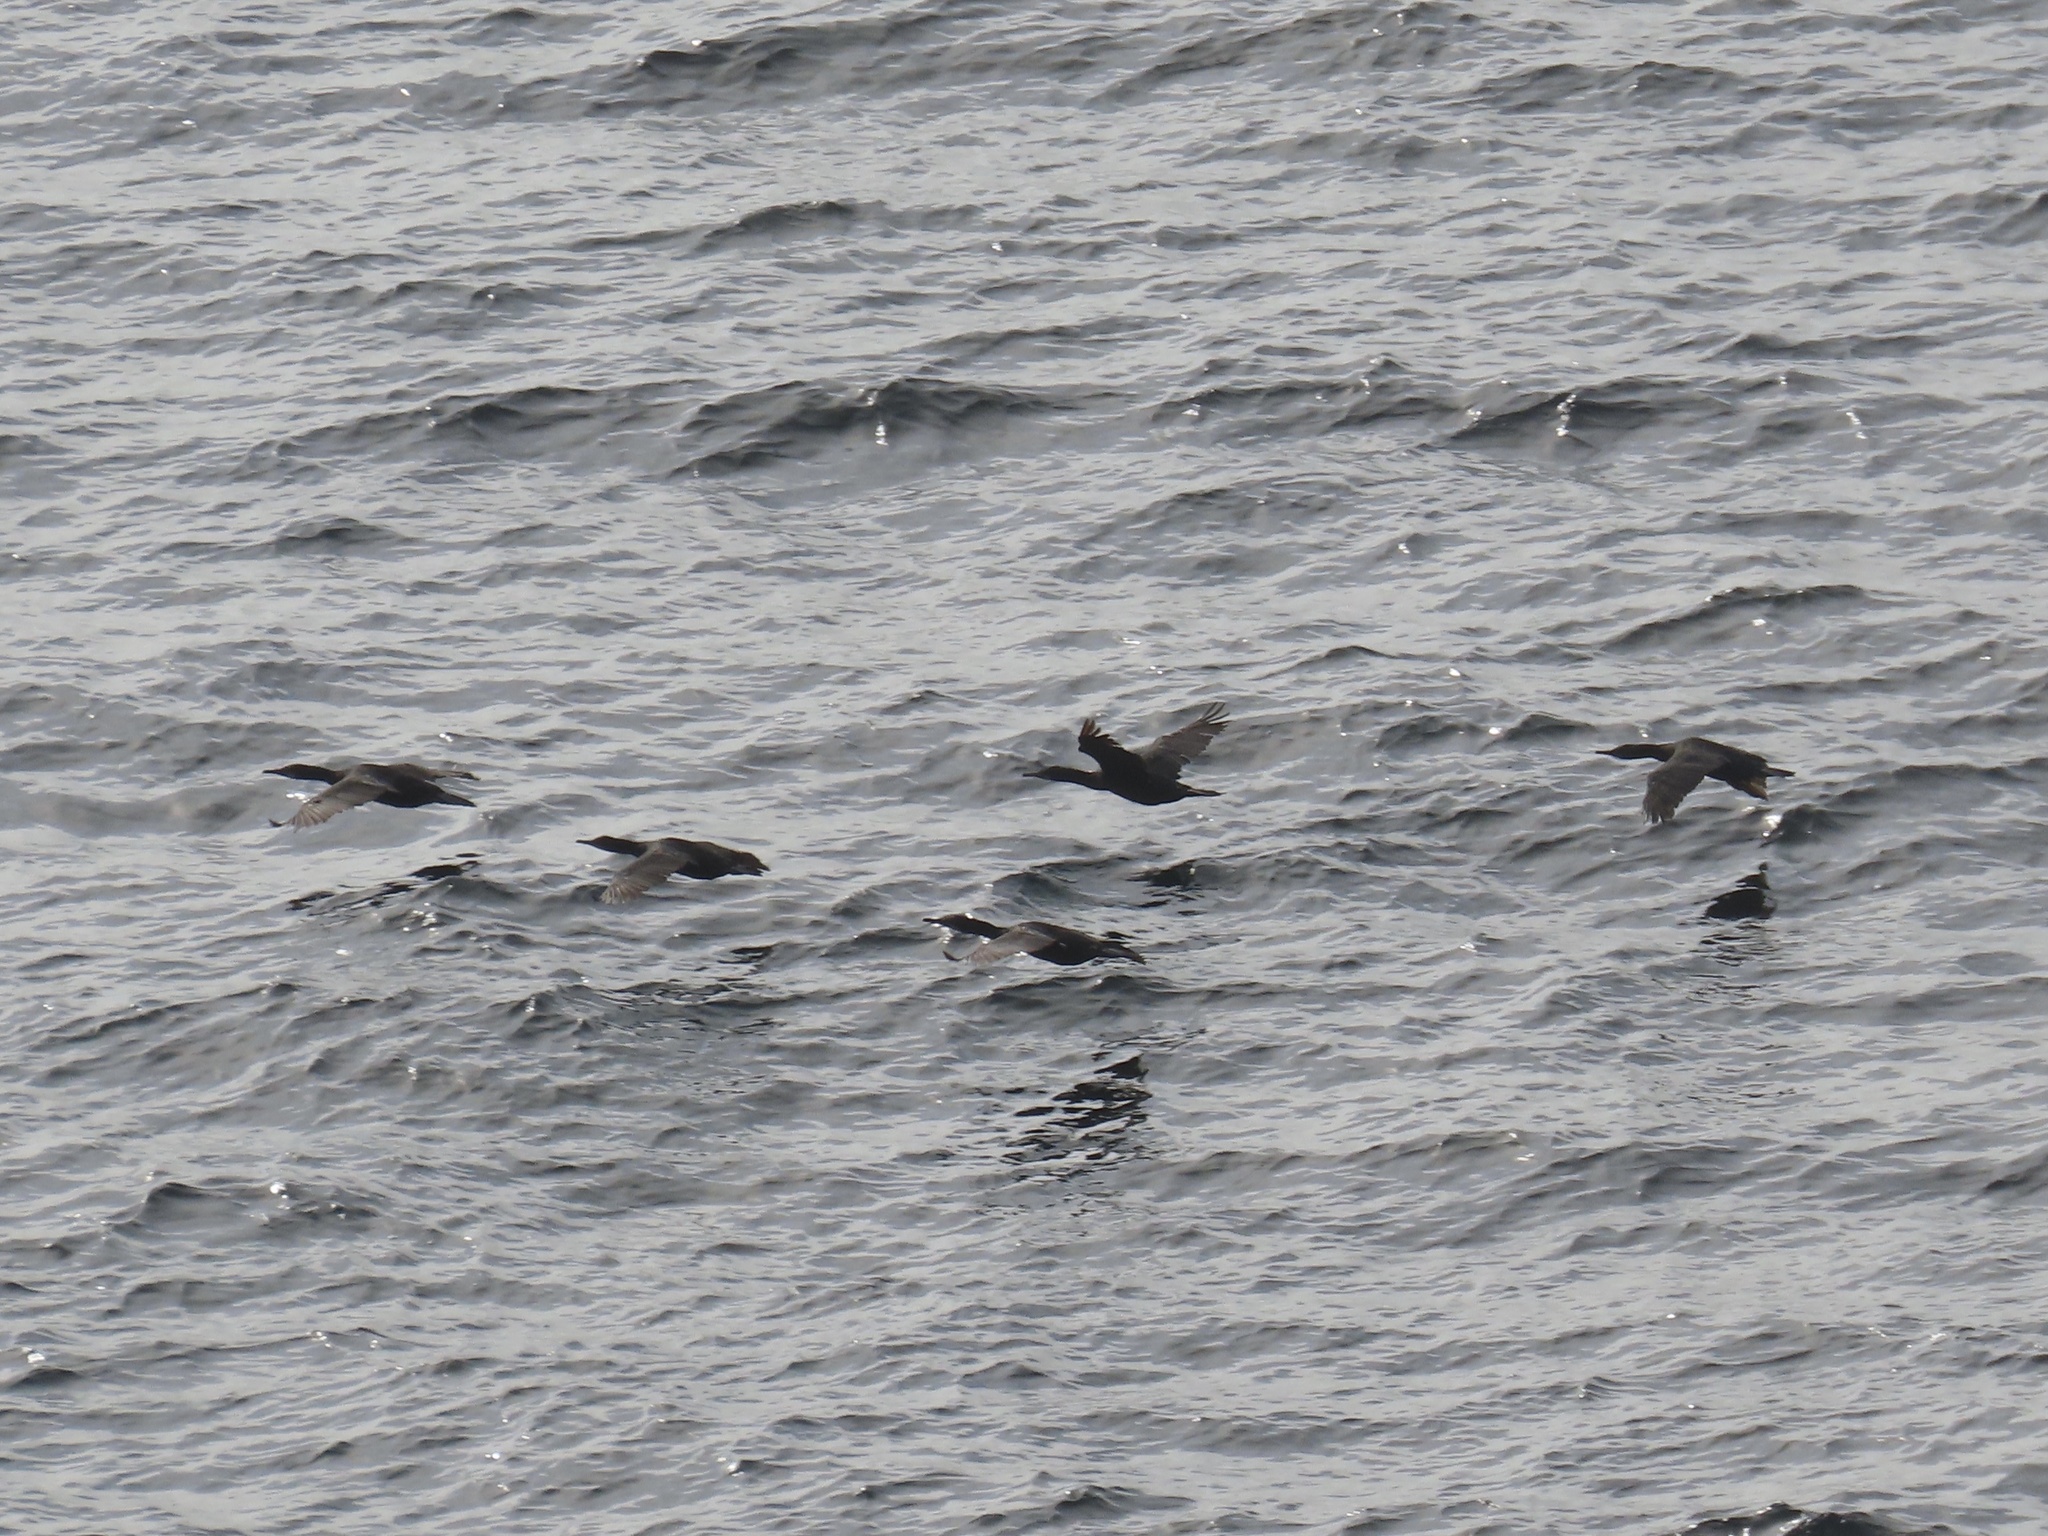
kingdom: Animalia
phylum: Chordata
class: Aves
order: Suliformes
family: Phalacrocoracidae
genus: Urile
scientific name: Urile penicillatus
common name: Brandt's cormorant
